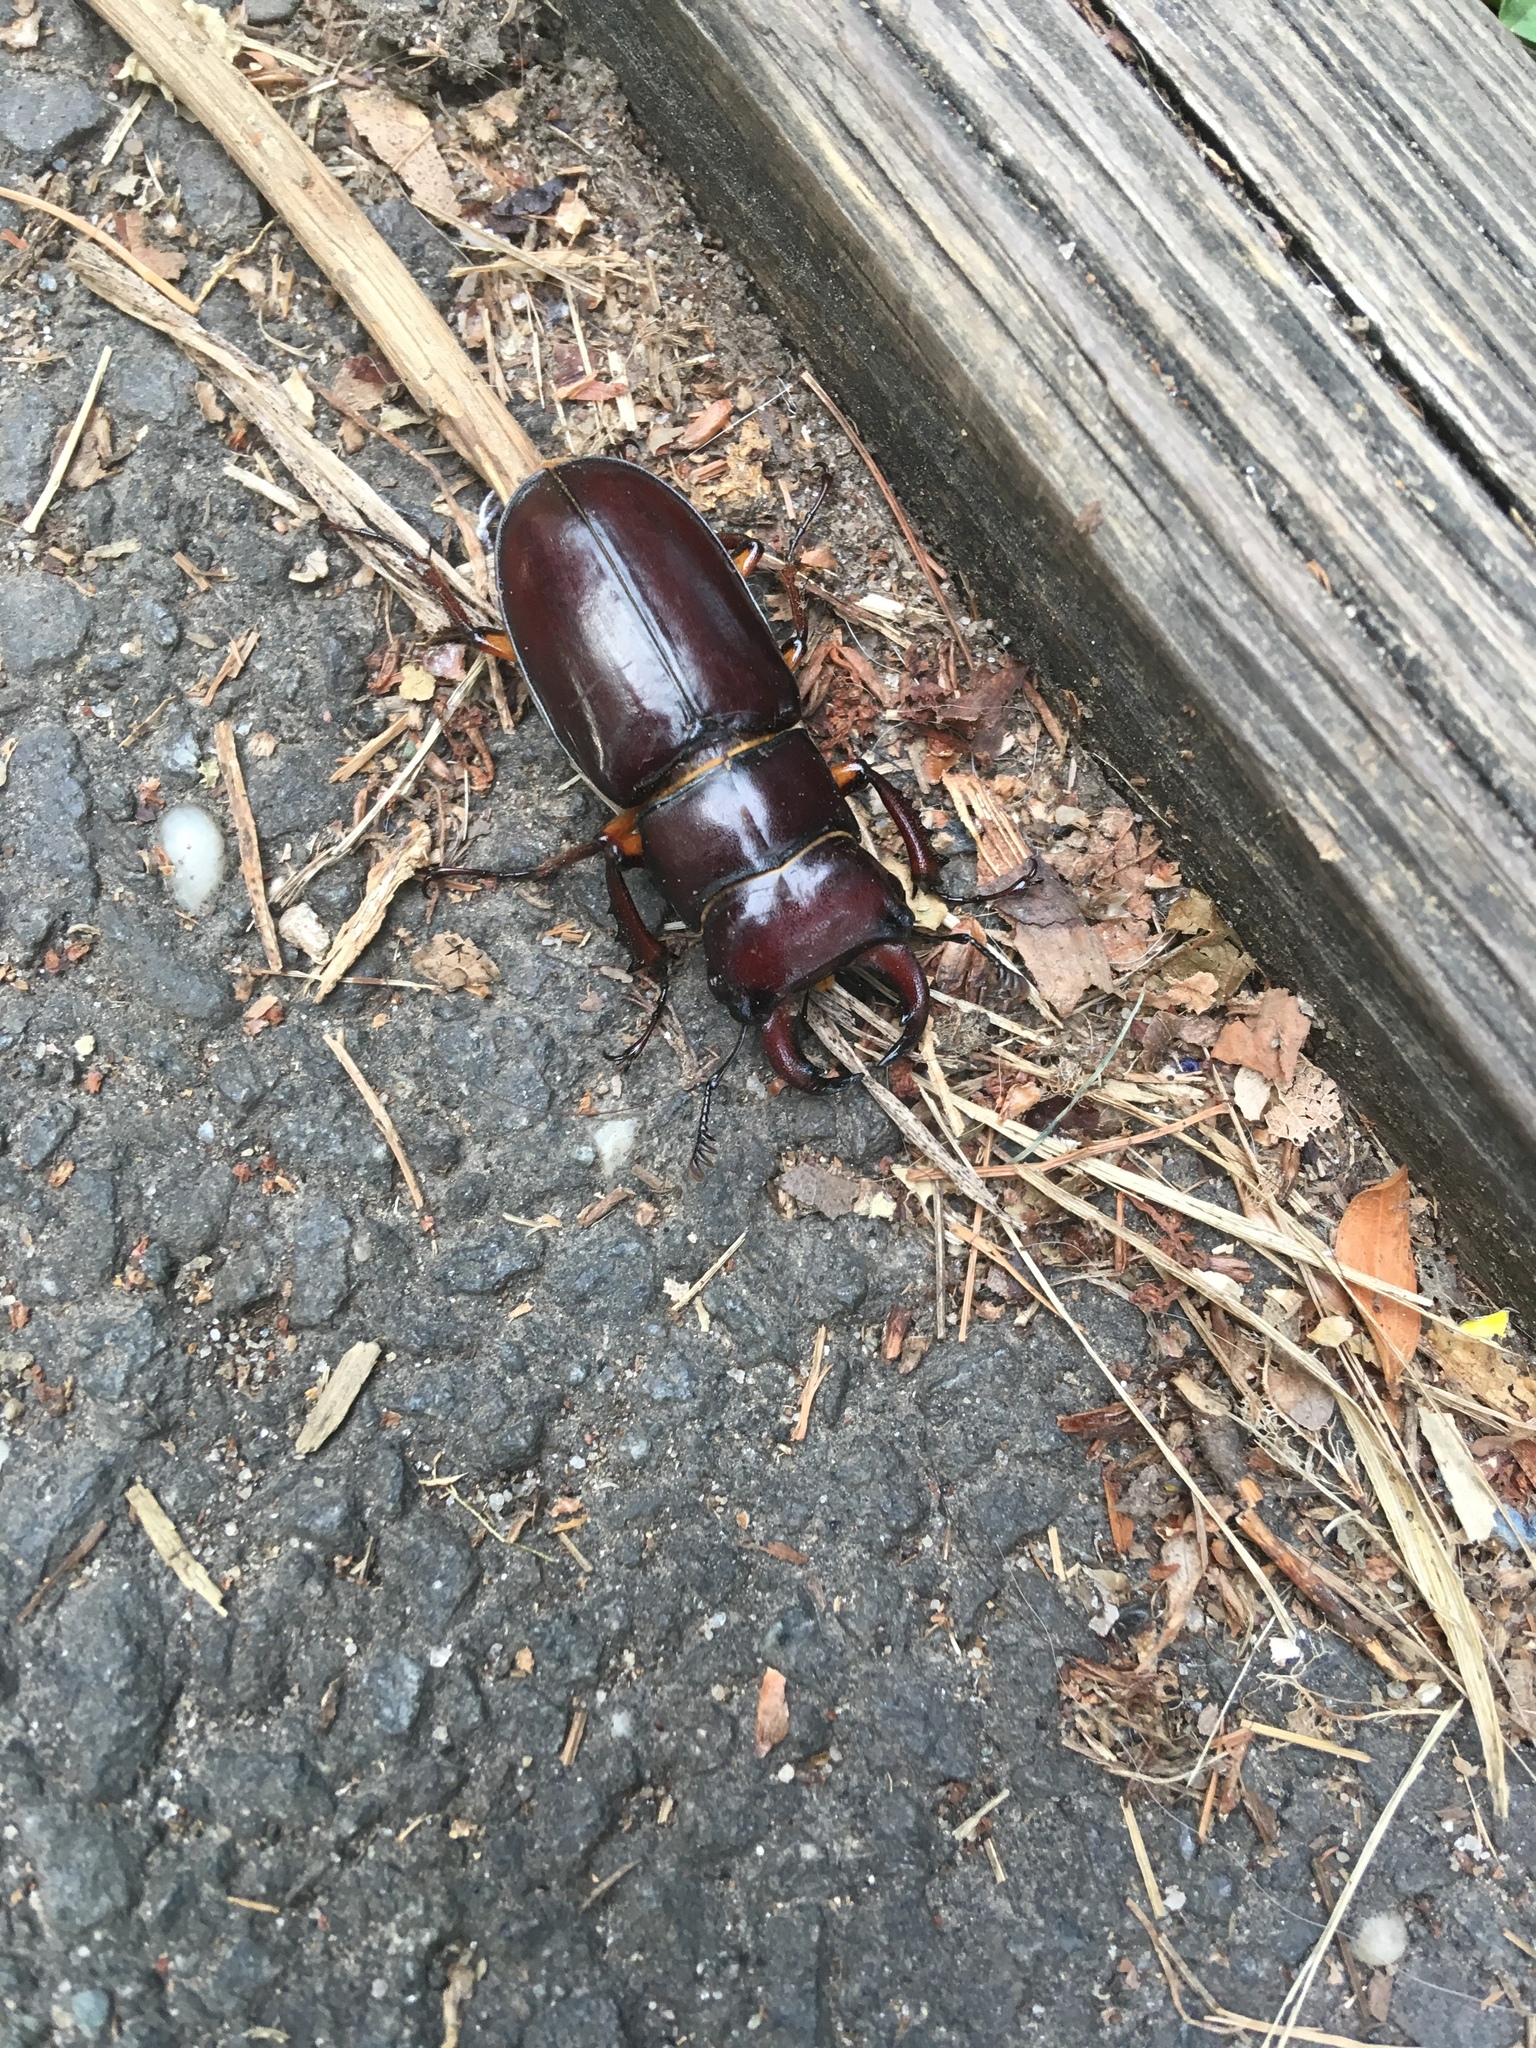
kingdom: Animalia
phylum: Arthropoda
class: Insecta
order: Coleoptera
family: Lucanidae
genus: Lucanus
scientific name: Lucanus capreolus
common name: Stag beetle
